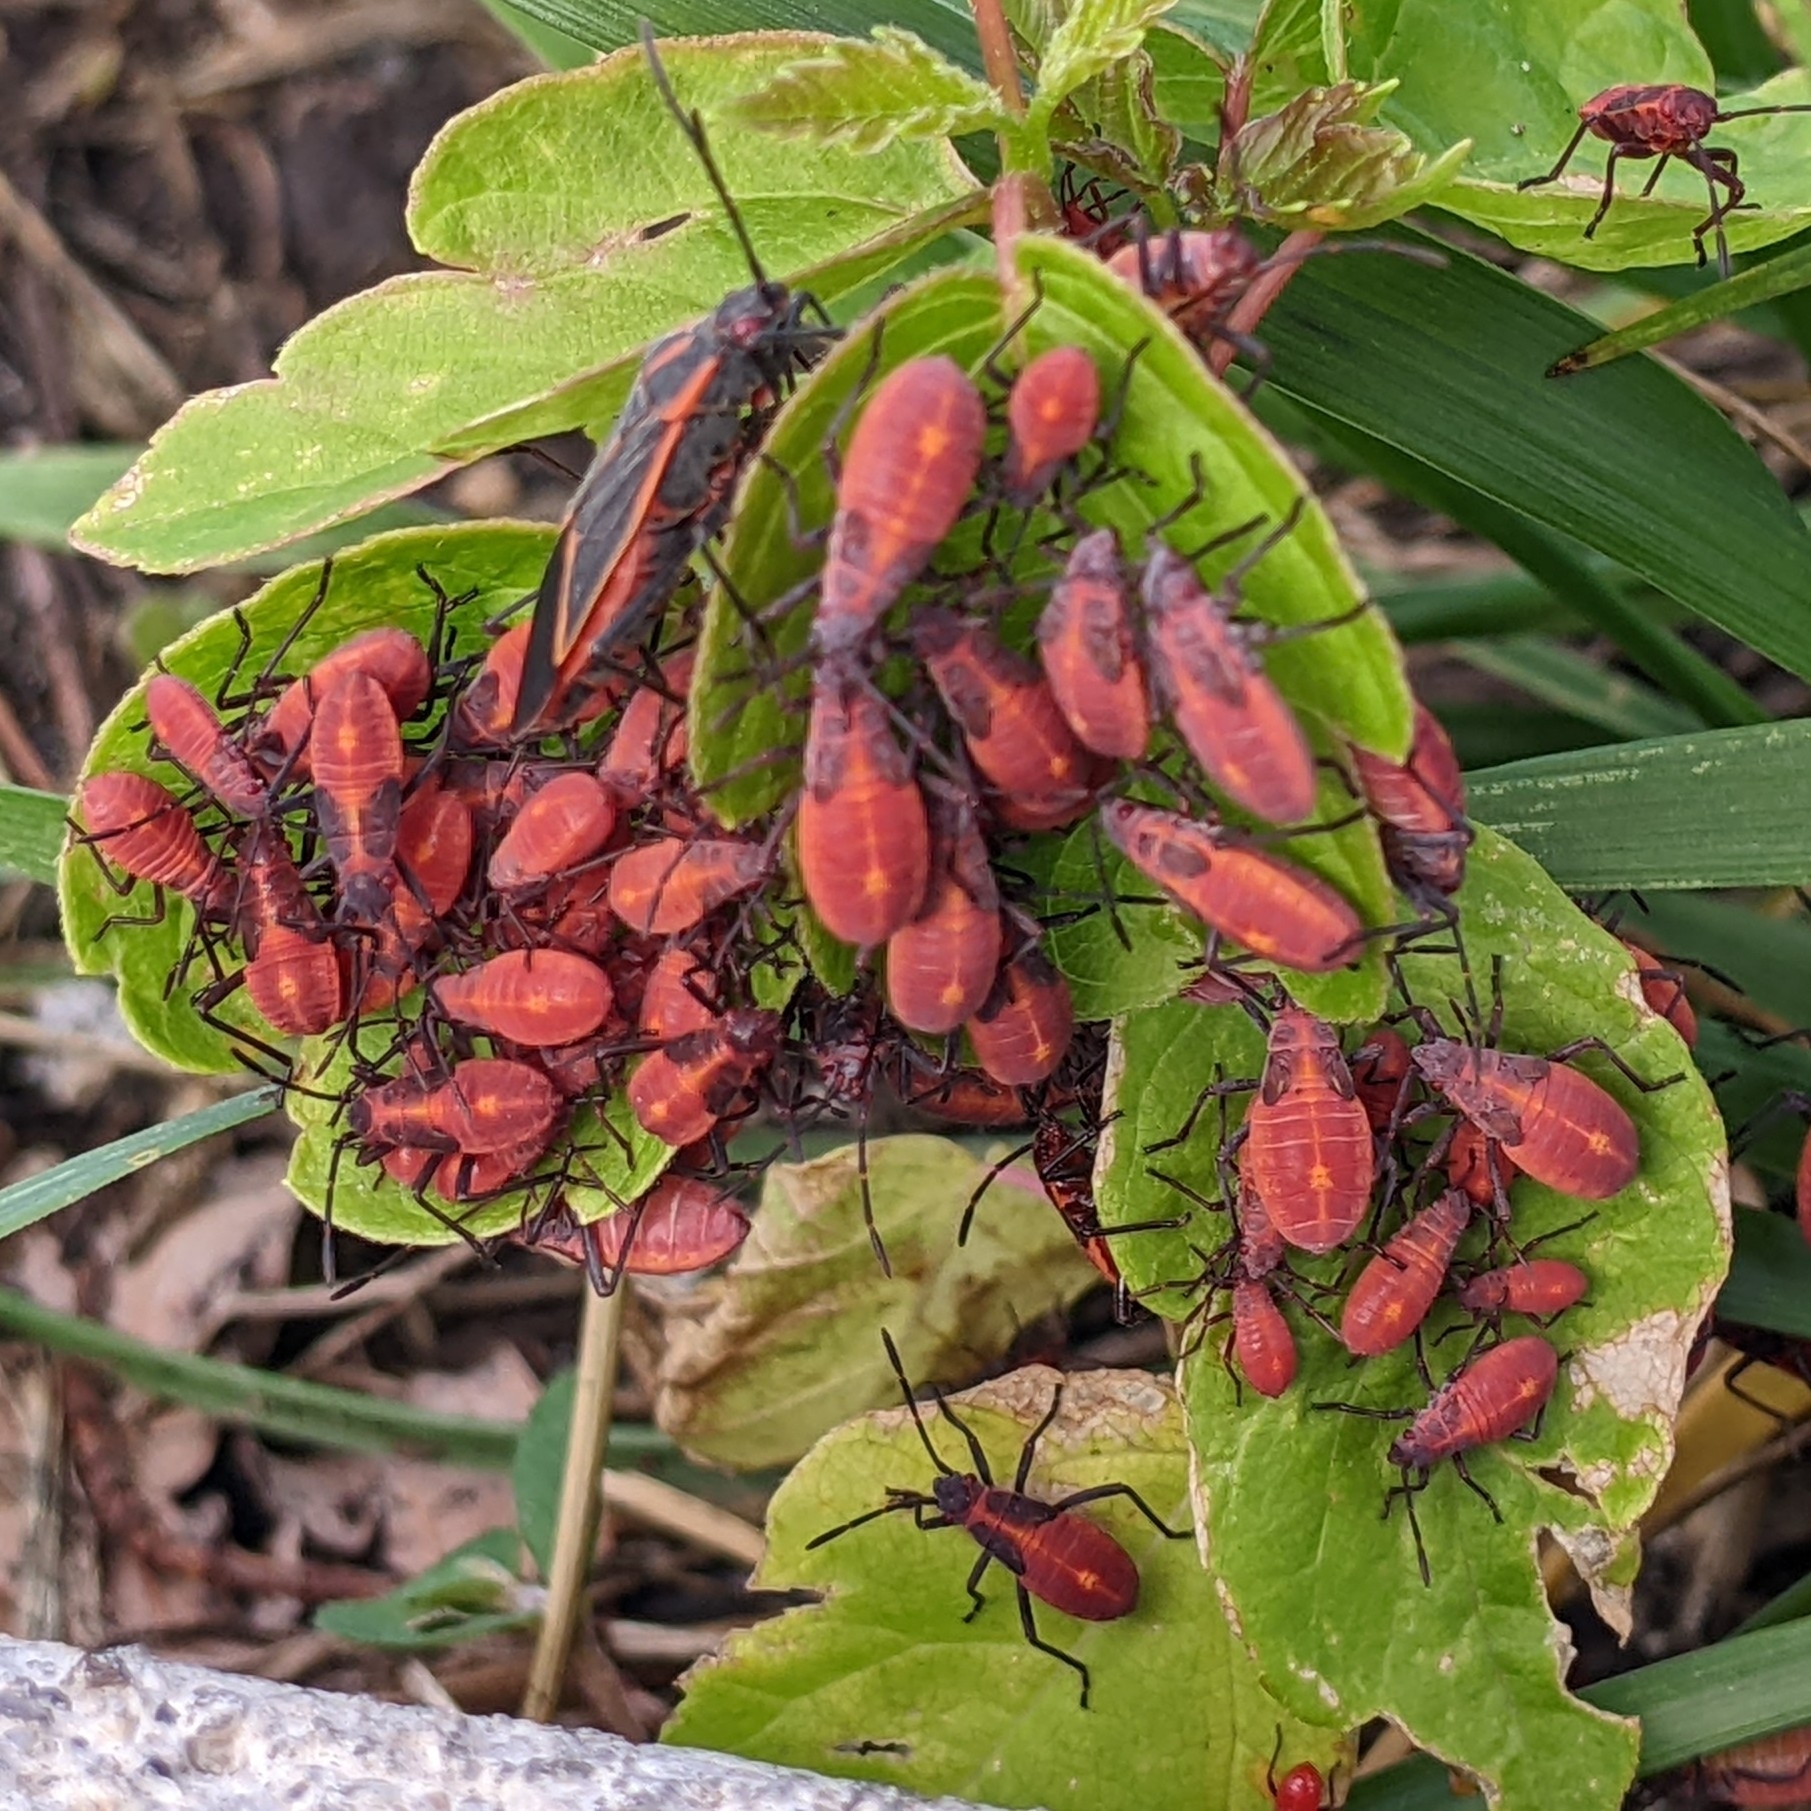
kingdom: Animalia
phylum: Arthropoda
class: Insecta
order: Hemiptera
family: Rhopalidae
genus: Boisea
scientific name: Boisea trivittata
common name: Boxelder bug
